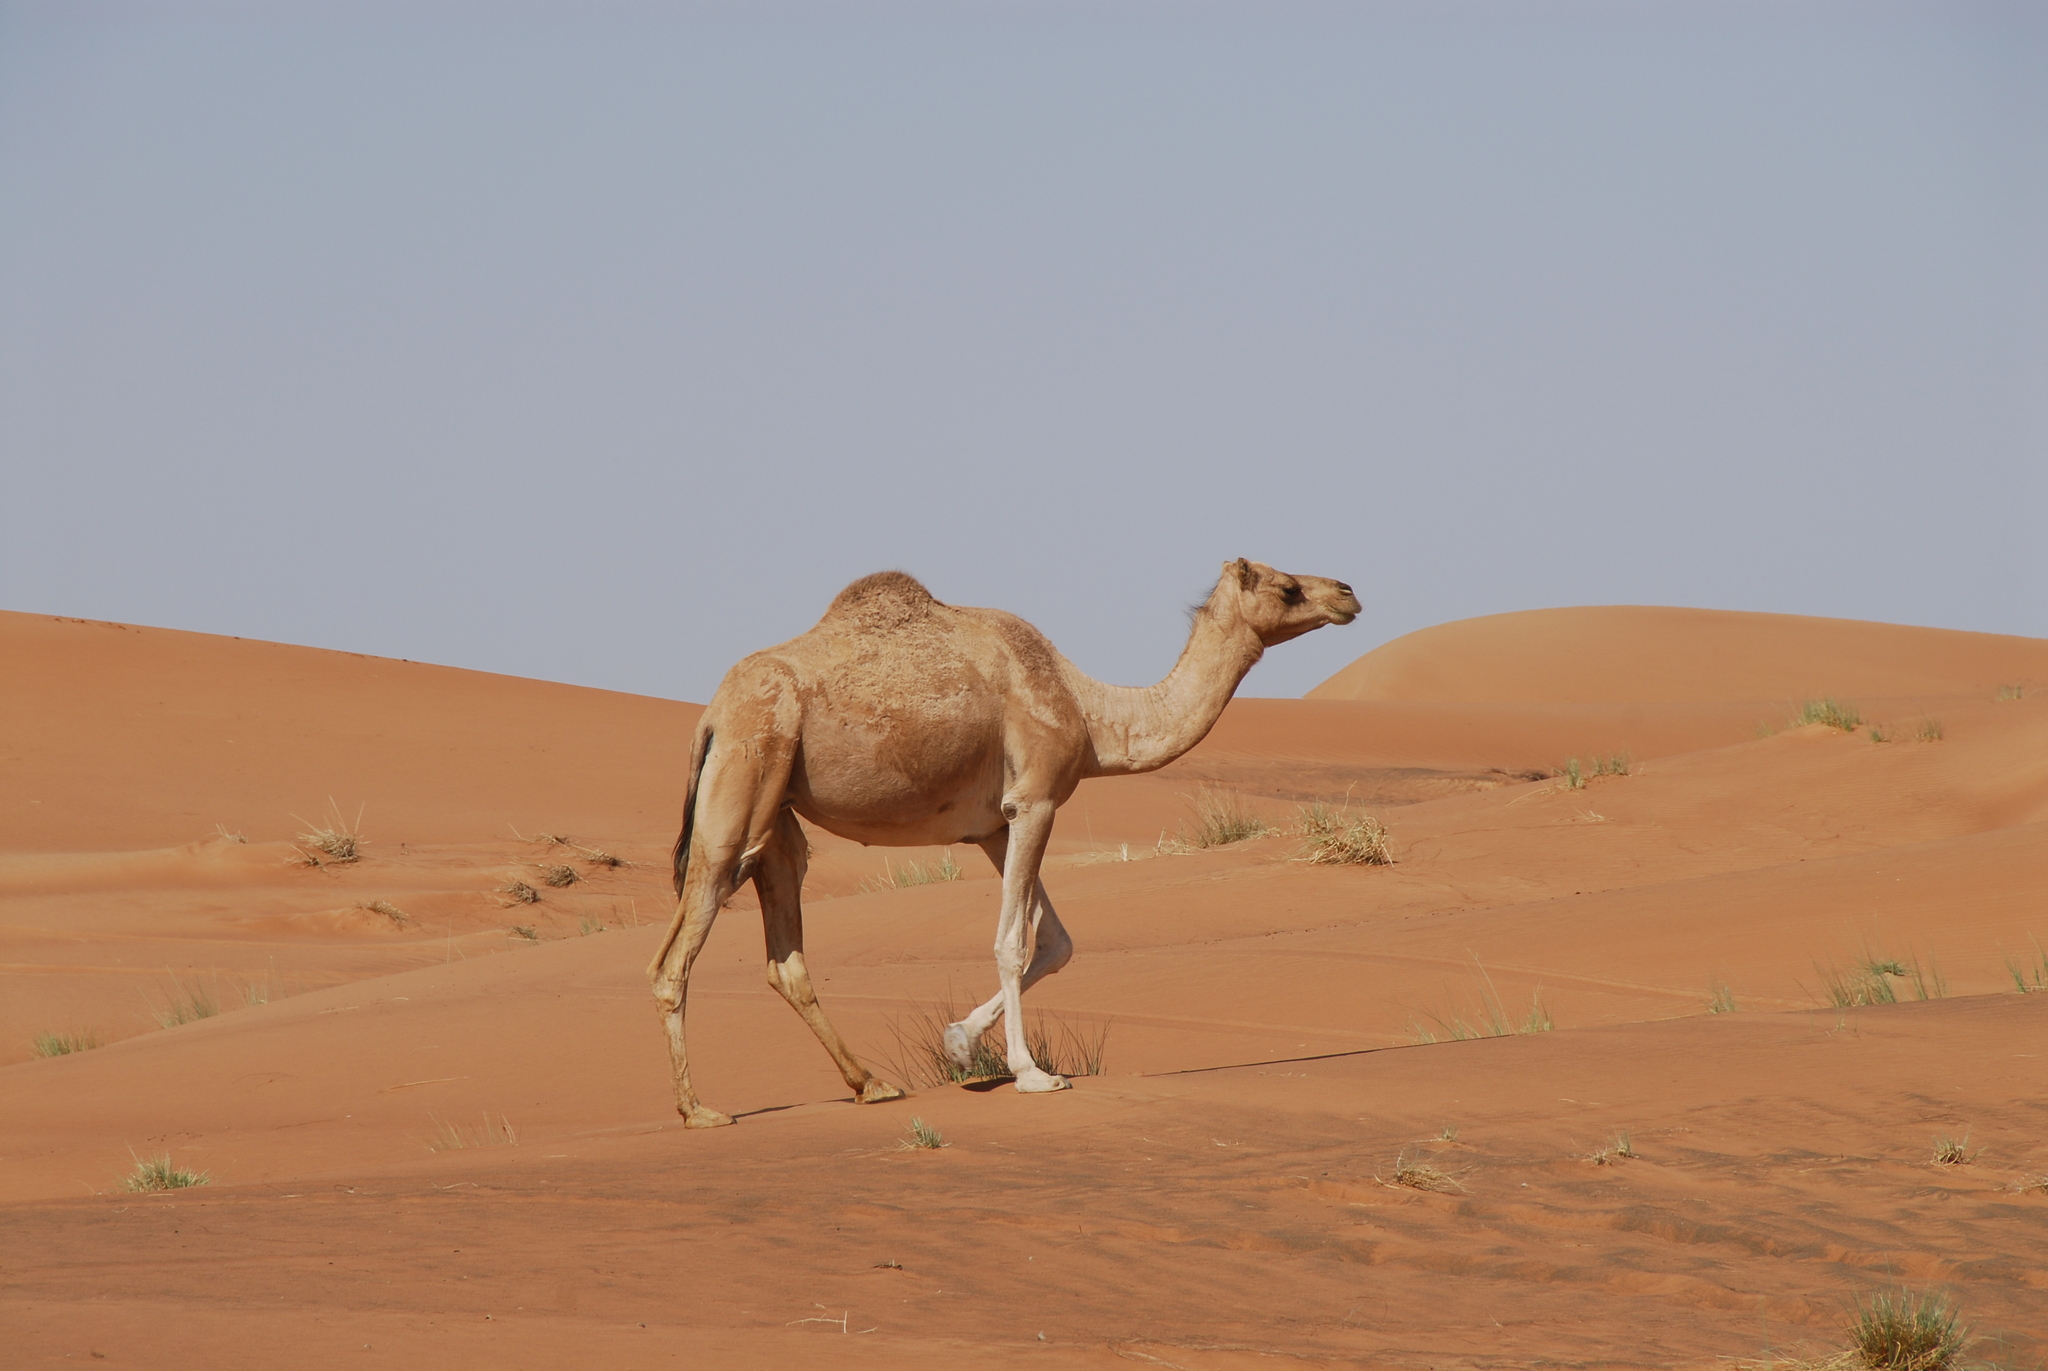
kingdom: Animalia
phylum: Chordata
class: Mammalia
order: Artiodactyla
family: Camelidae
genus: Camelus
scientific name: Camelus dromedarius
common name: One-humped camel
